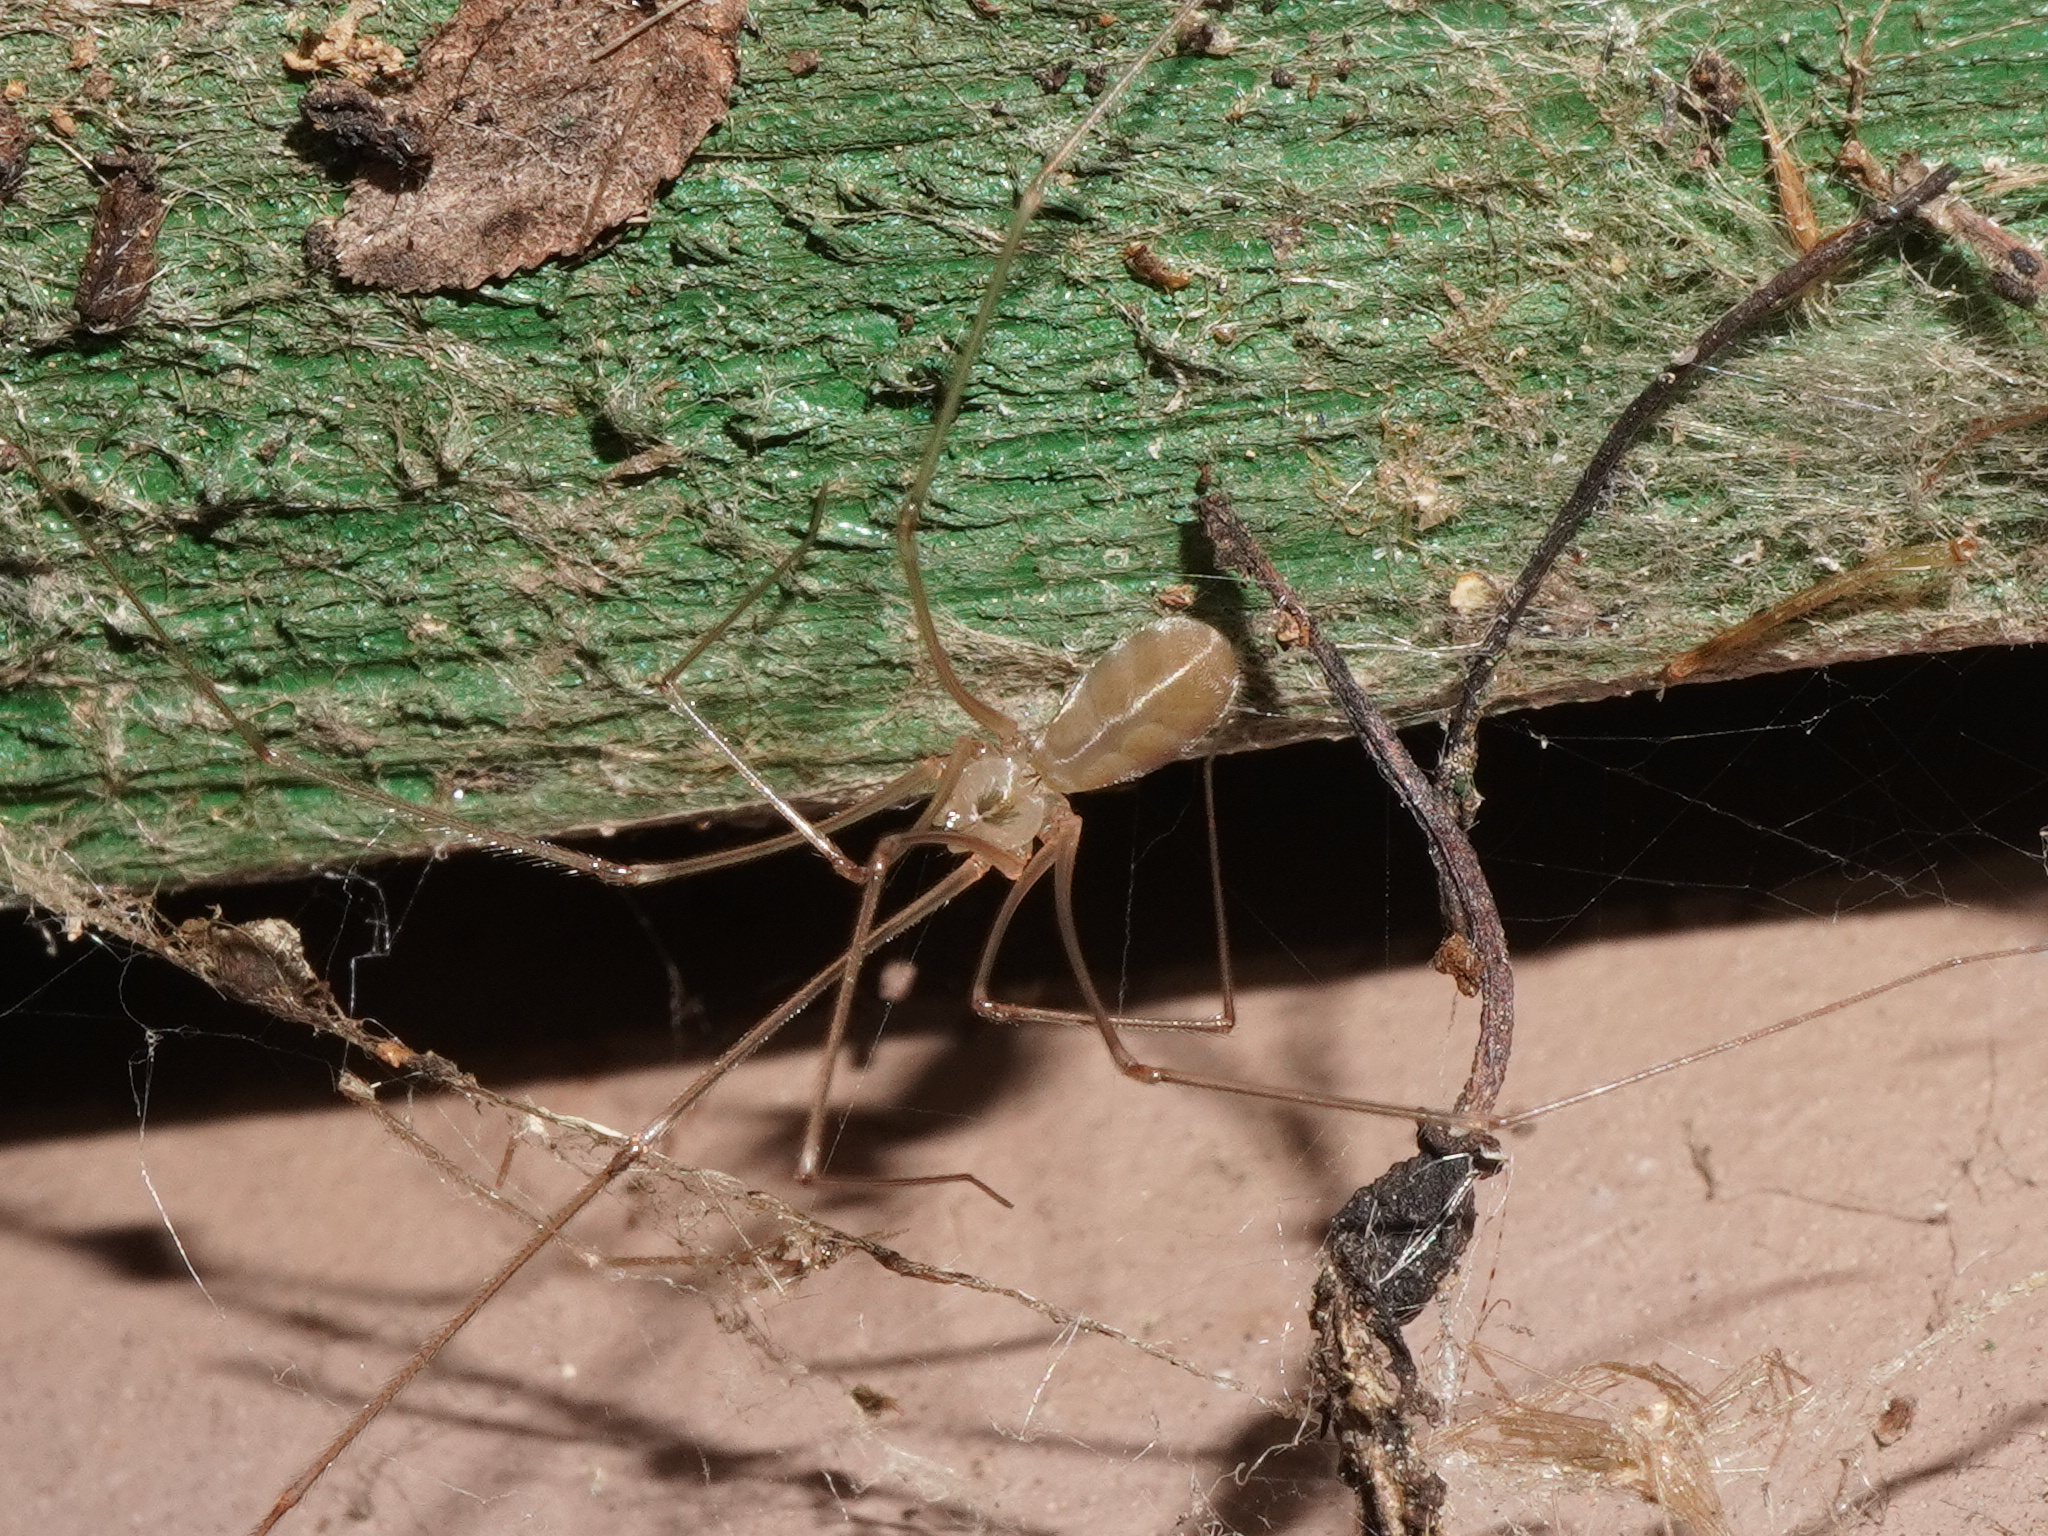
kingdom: Animalia
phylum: Arthropoda
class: Arachnida
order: Araneae
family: Pholcidae
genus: Pholcus
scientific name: Pholcus phalangioides
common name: Longbodied cellar spider
